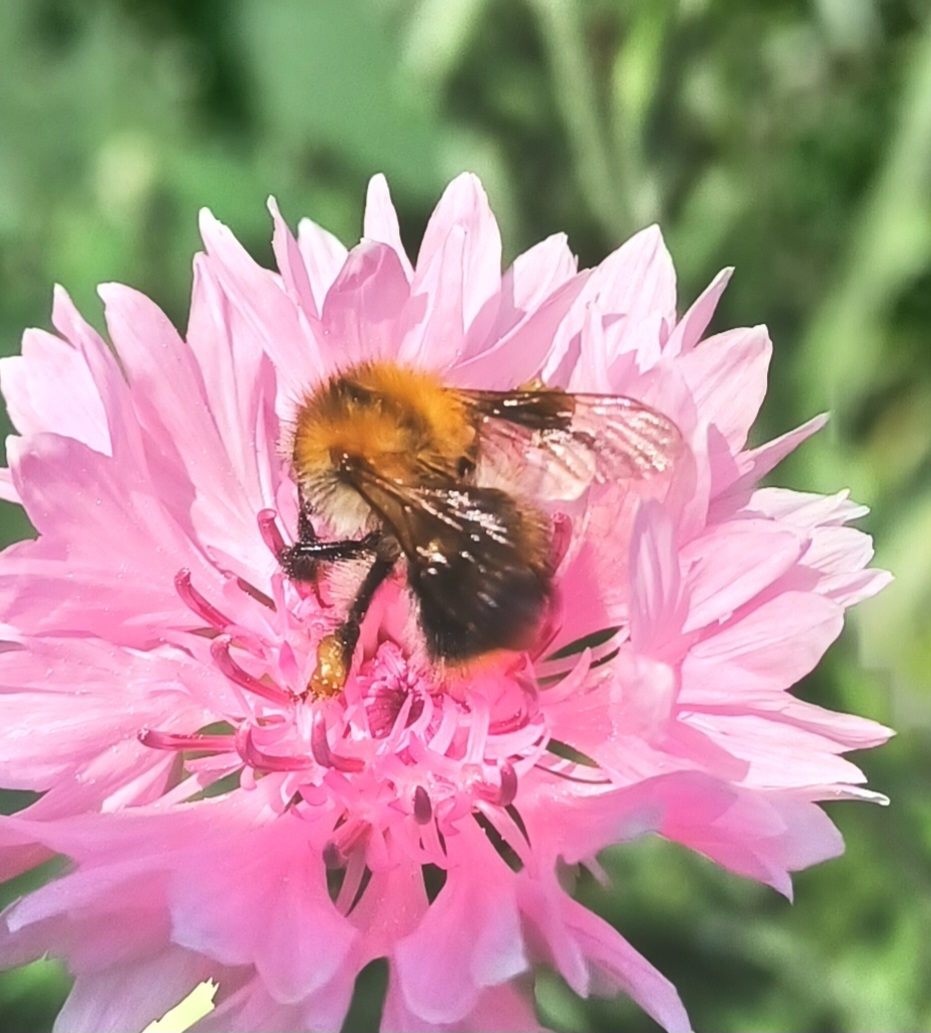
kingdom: Animalia
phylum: Arthropoda
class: Insecta
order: Hymenoptera
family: Apidae
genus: Bombus
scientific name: Bombus pascuorum
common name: Common carder bee
